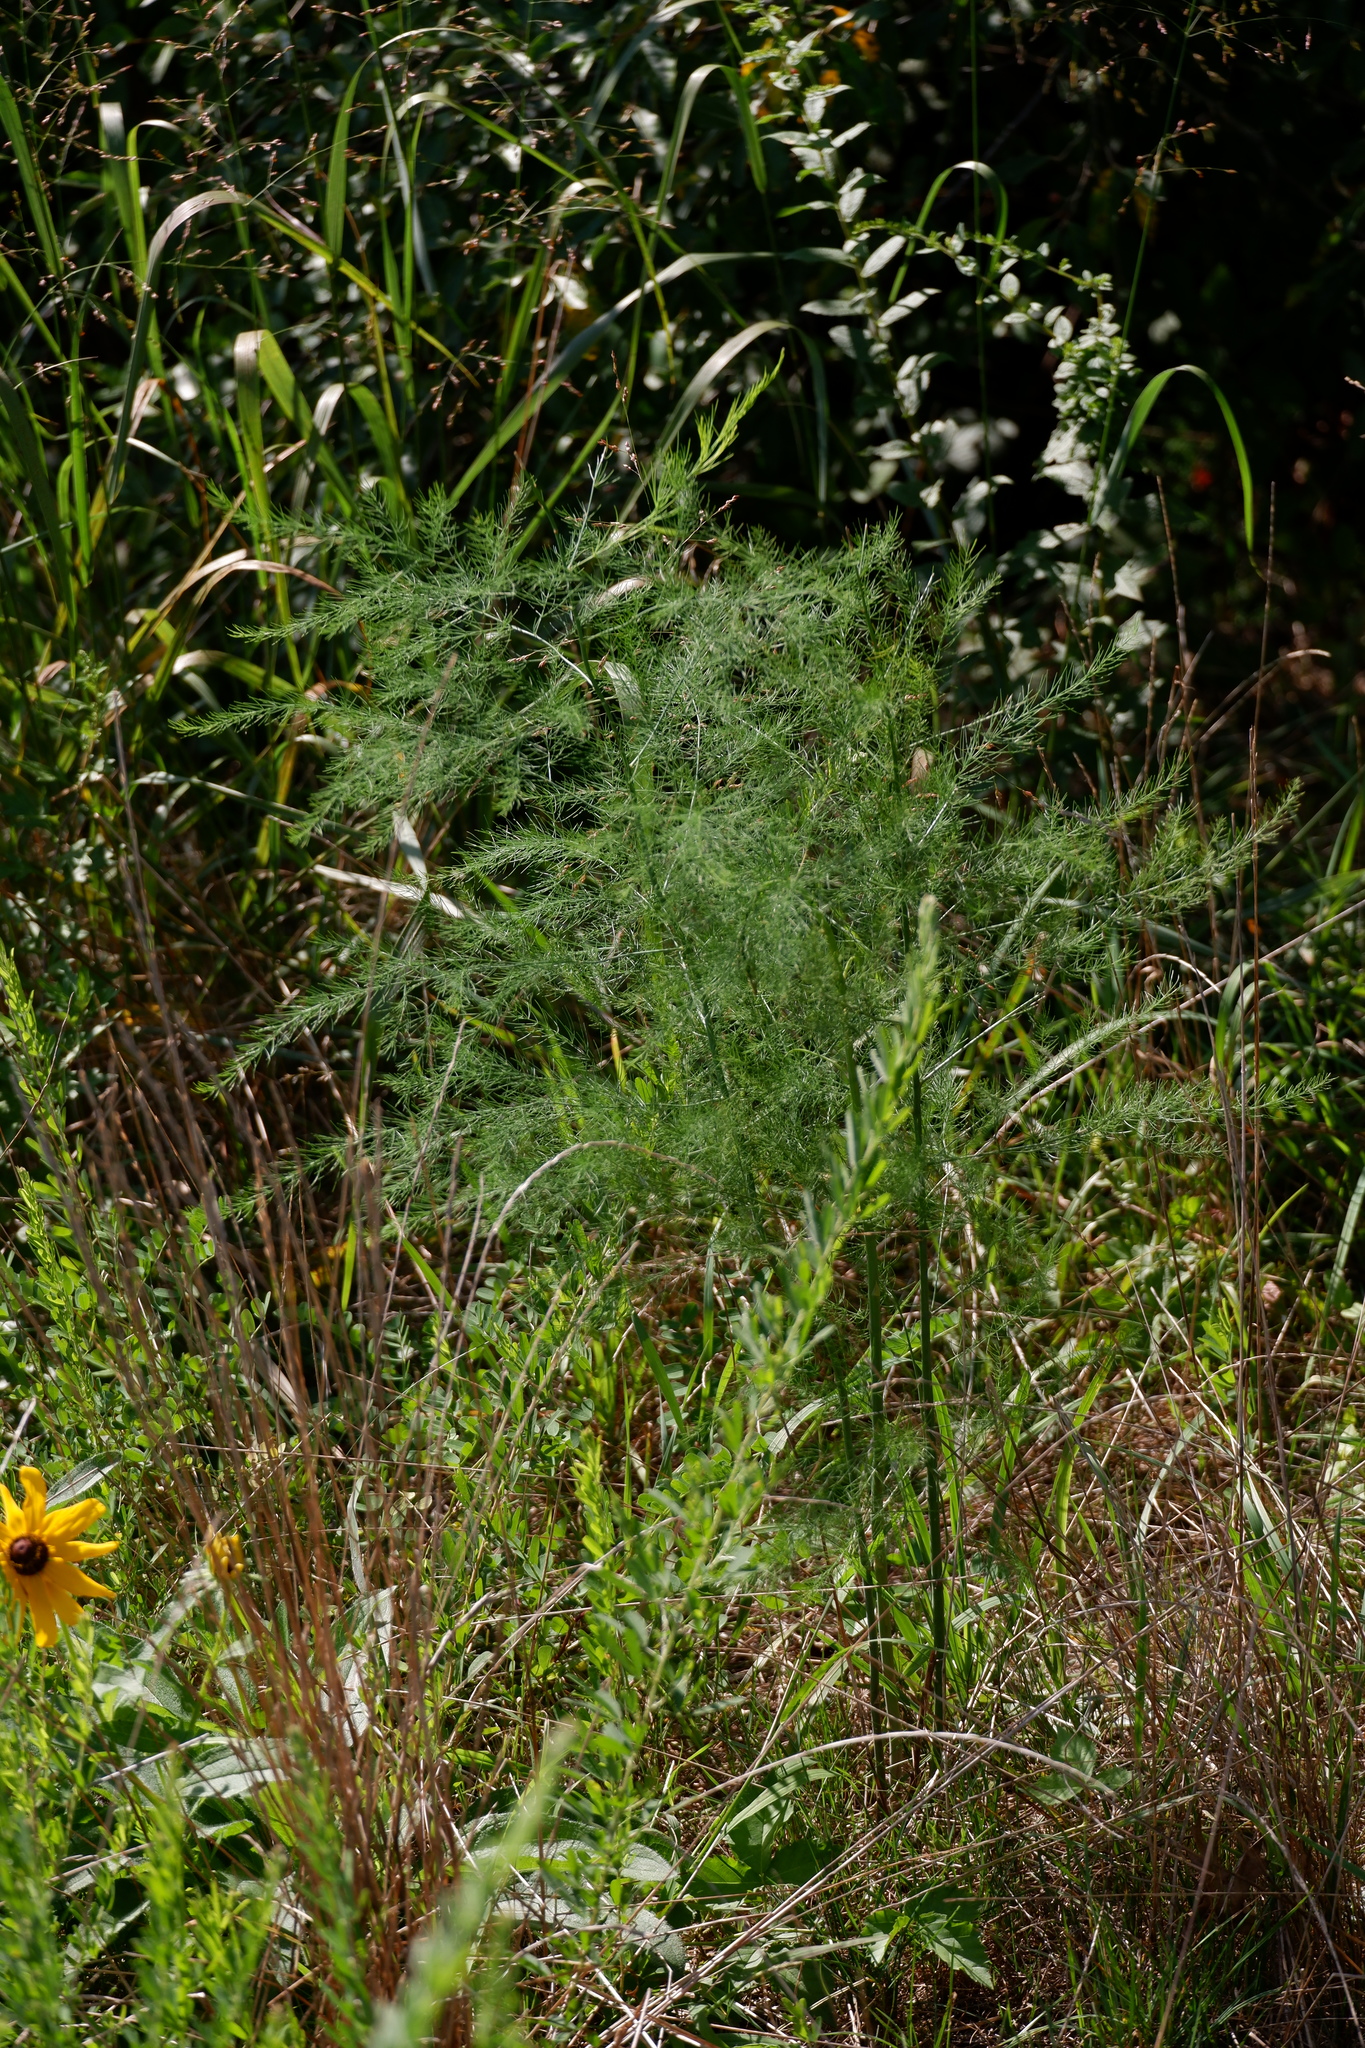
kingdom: Plantae
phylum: Tracheophyta
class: Liliopsida
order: Asparagales
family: Asparagaceae
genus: Asparagus
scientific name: Asparagus officinalis
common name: Garden asparagus
